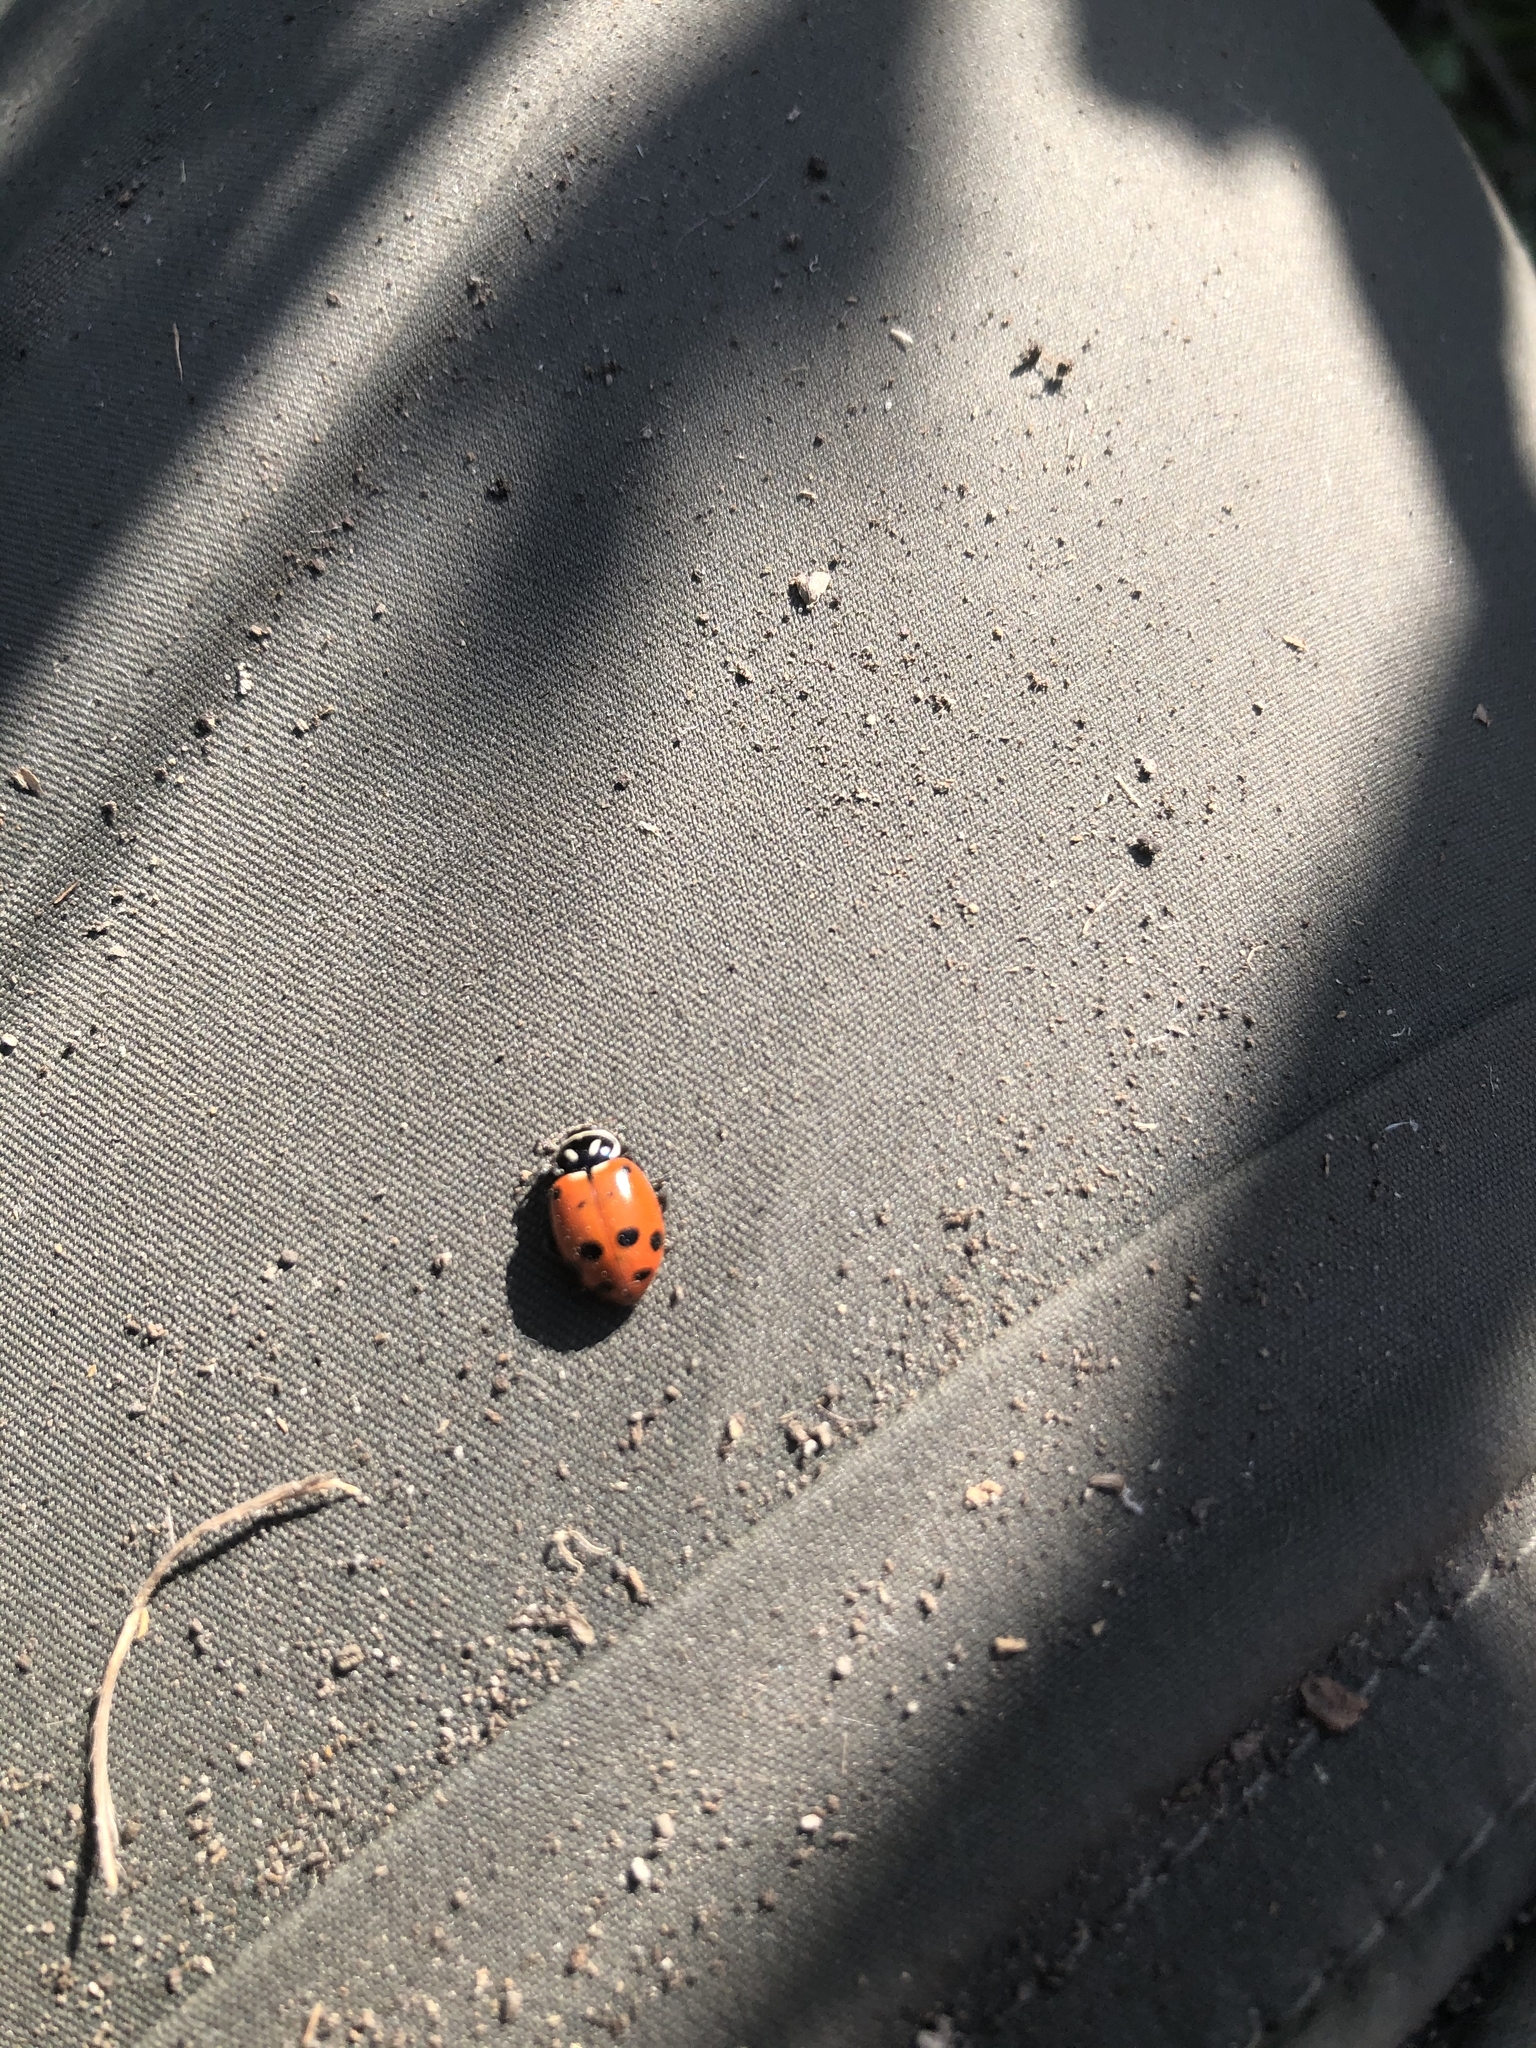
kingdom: Animalia
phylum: Arthropoda
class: Insecta
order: Coleoptera
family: Coccinellidae
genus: Hippodamia
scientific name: Hippodamia convergens
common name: Convergent lady beetle
